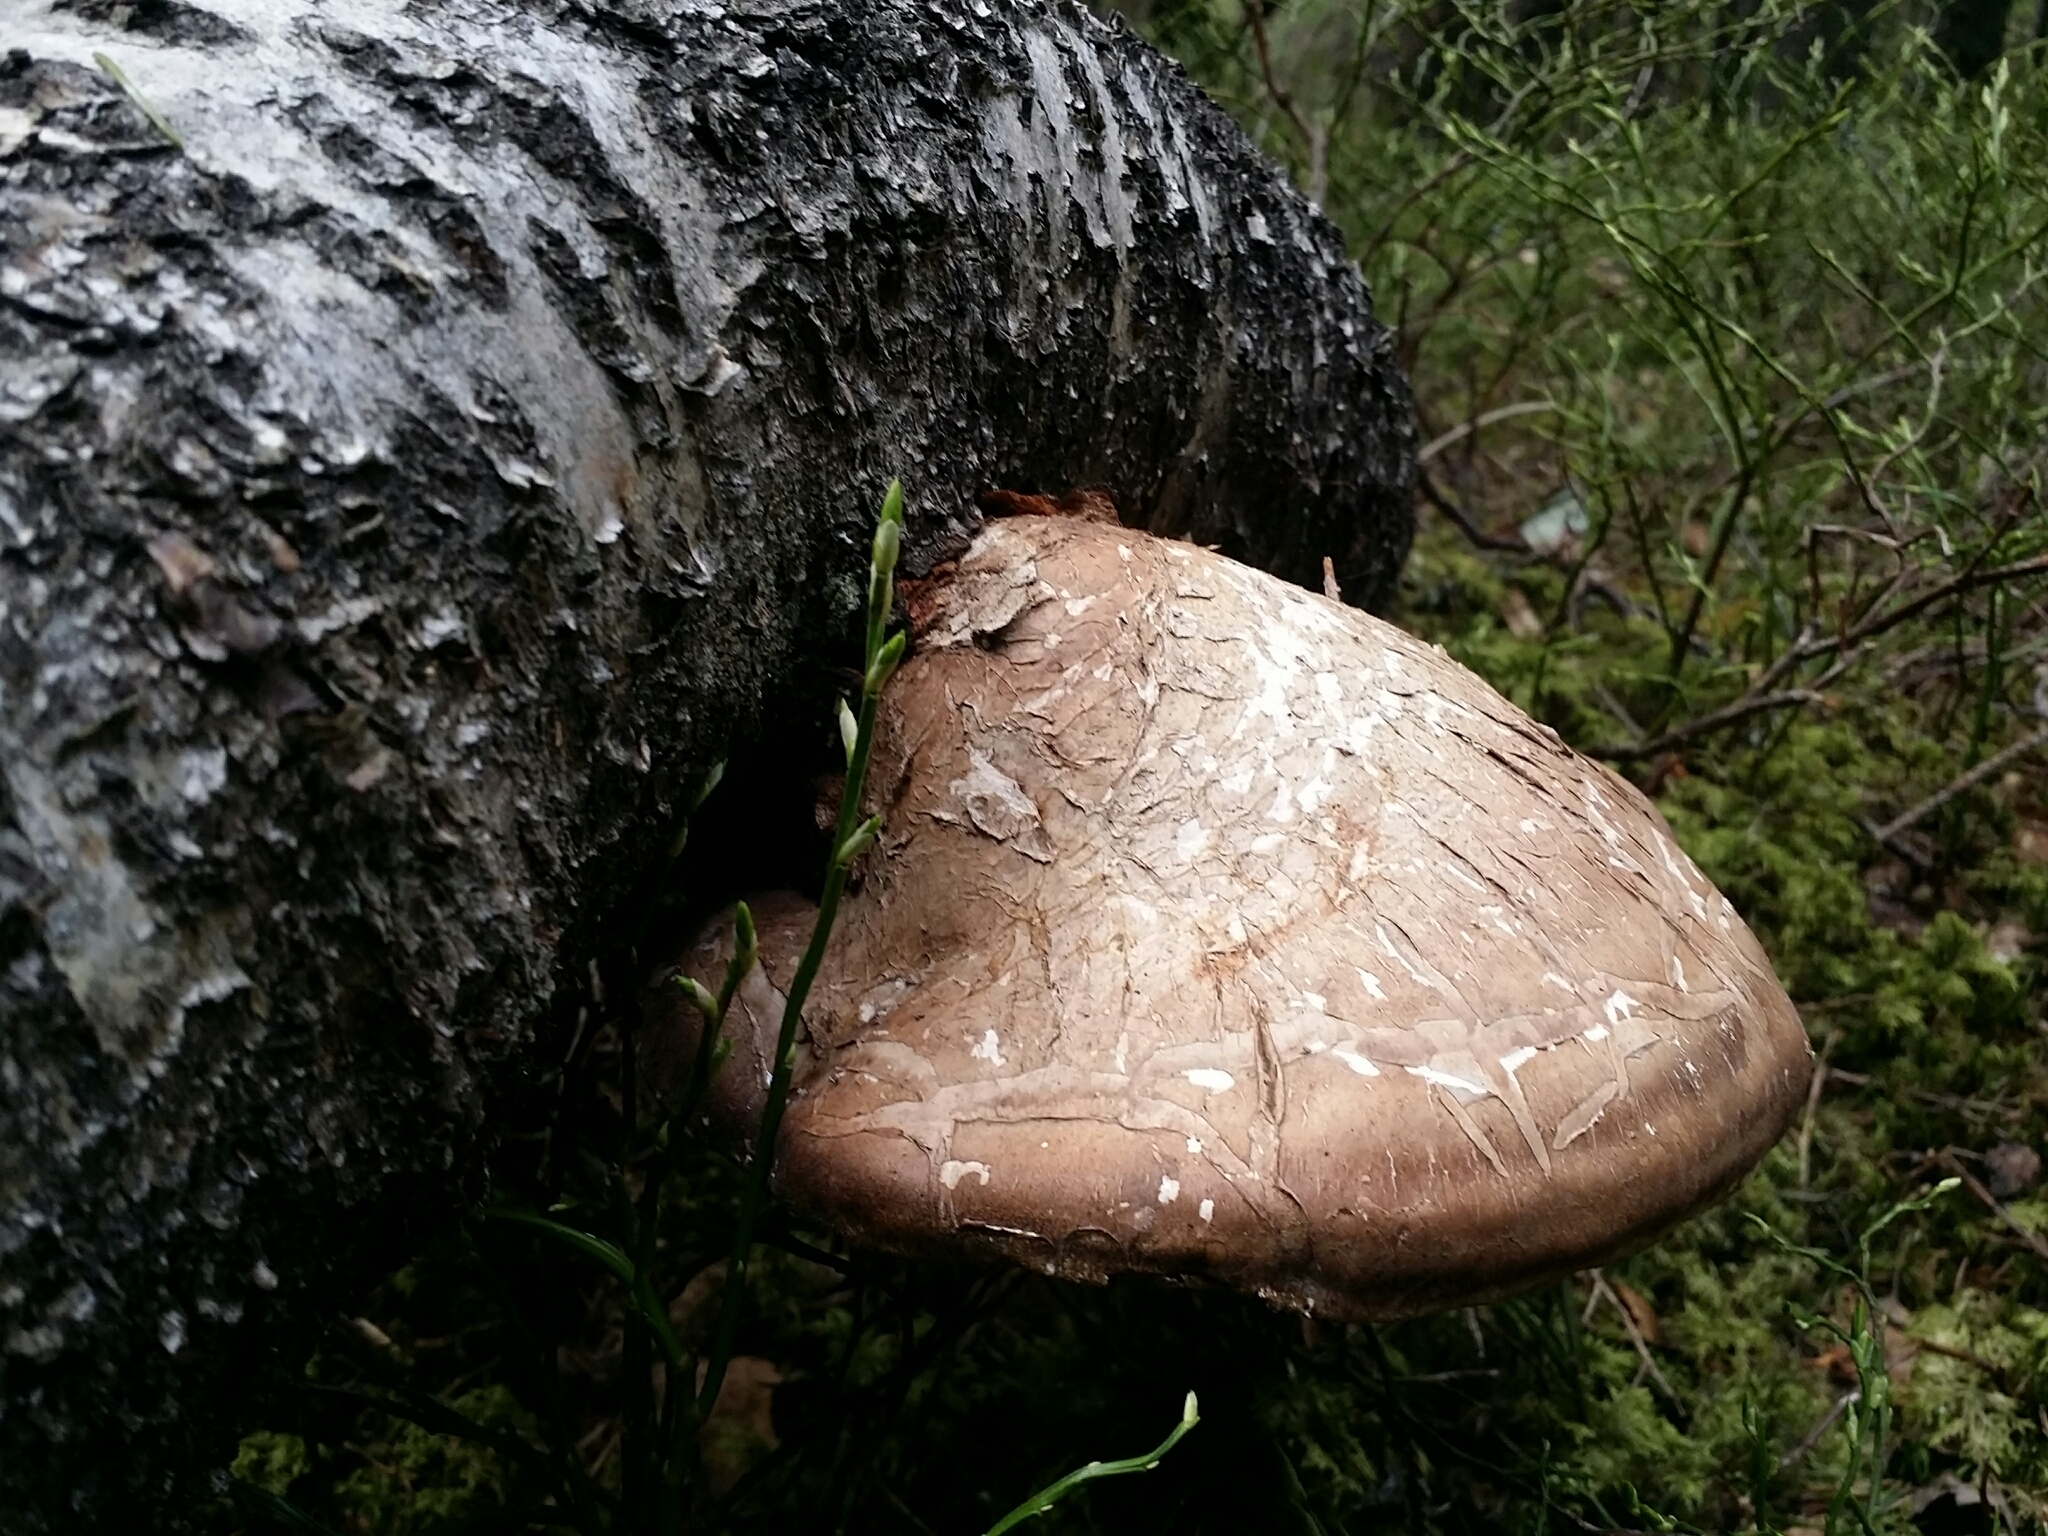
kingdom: Fungi
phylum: Basidiomycota
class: Agaricomycetes
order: Polyporales
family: Fomitopsidaceae
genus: Fomitopsis
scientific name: Fomitopsis betulina
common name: Birch polypore
